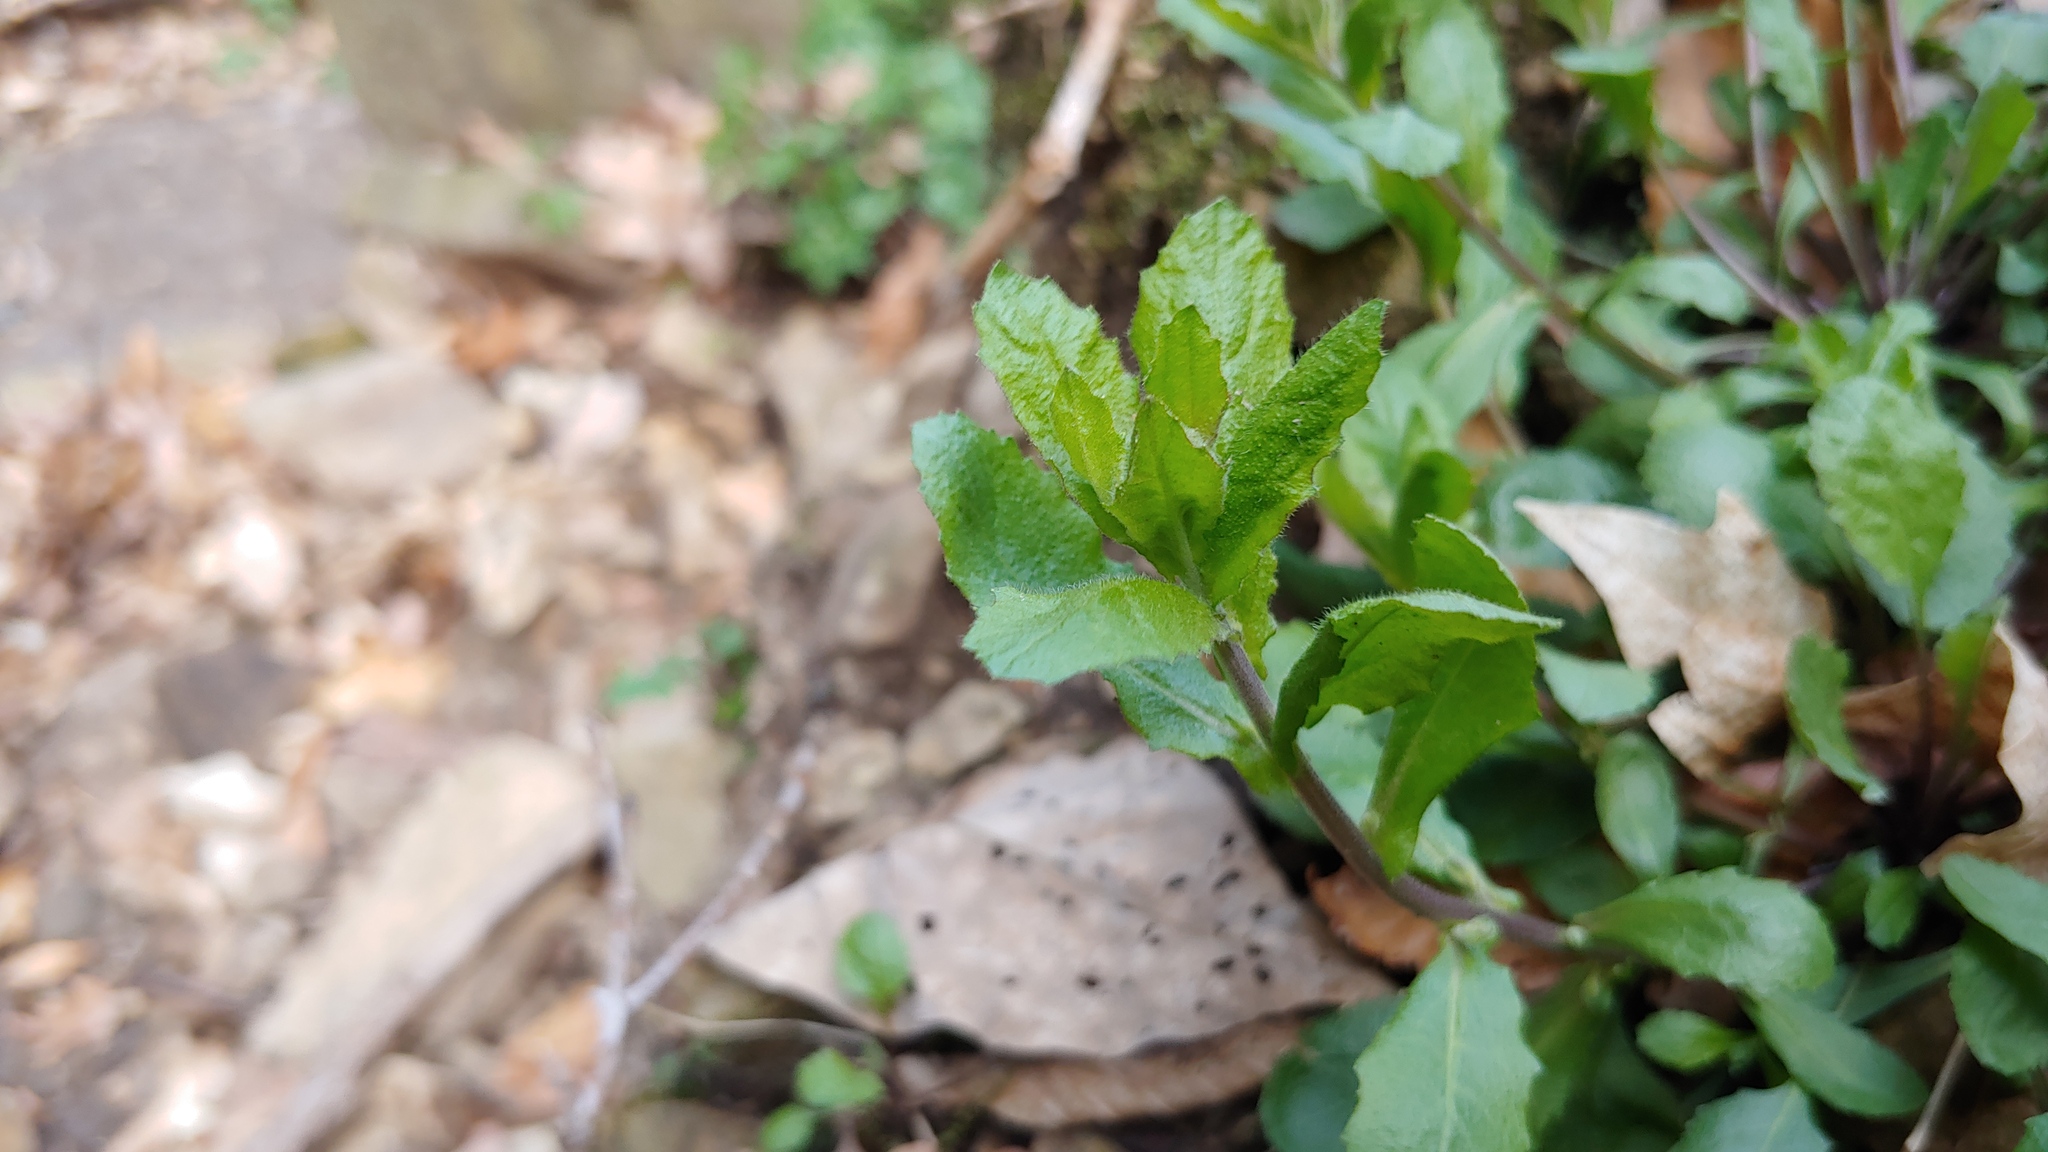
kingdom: Plantae
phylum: Tracheophyta
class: Magnoliopsida
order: Brassicales
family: Brassicaceae
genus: Borodinia
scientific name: Borodinia dentata
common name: Short's rockcress
